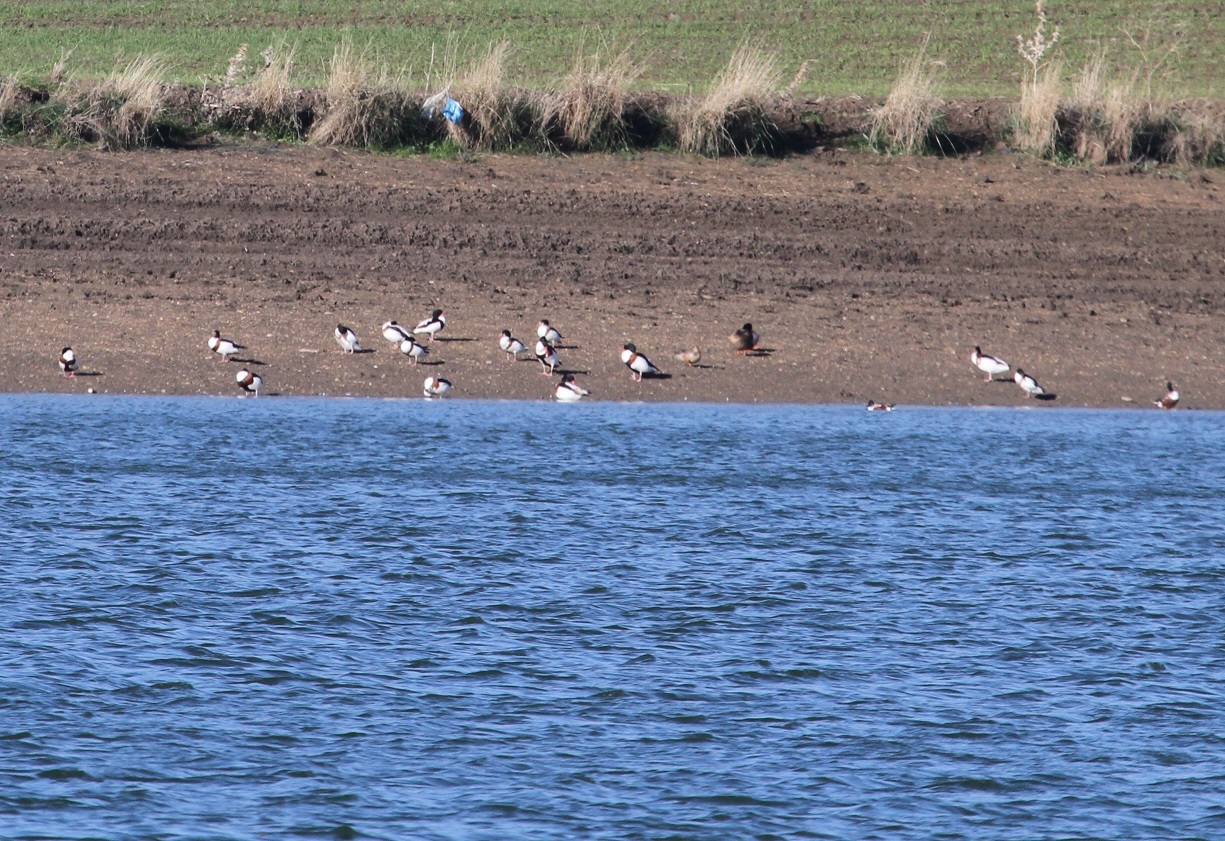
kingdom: Animalia
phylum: Chordata
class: Aves
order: Anseriformes
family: Anatidae
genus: Tadorna
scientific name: Tadorna tadorna
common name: Common shelduck
